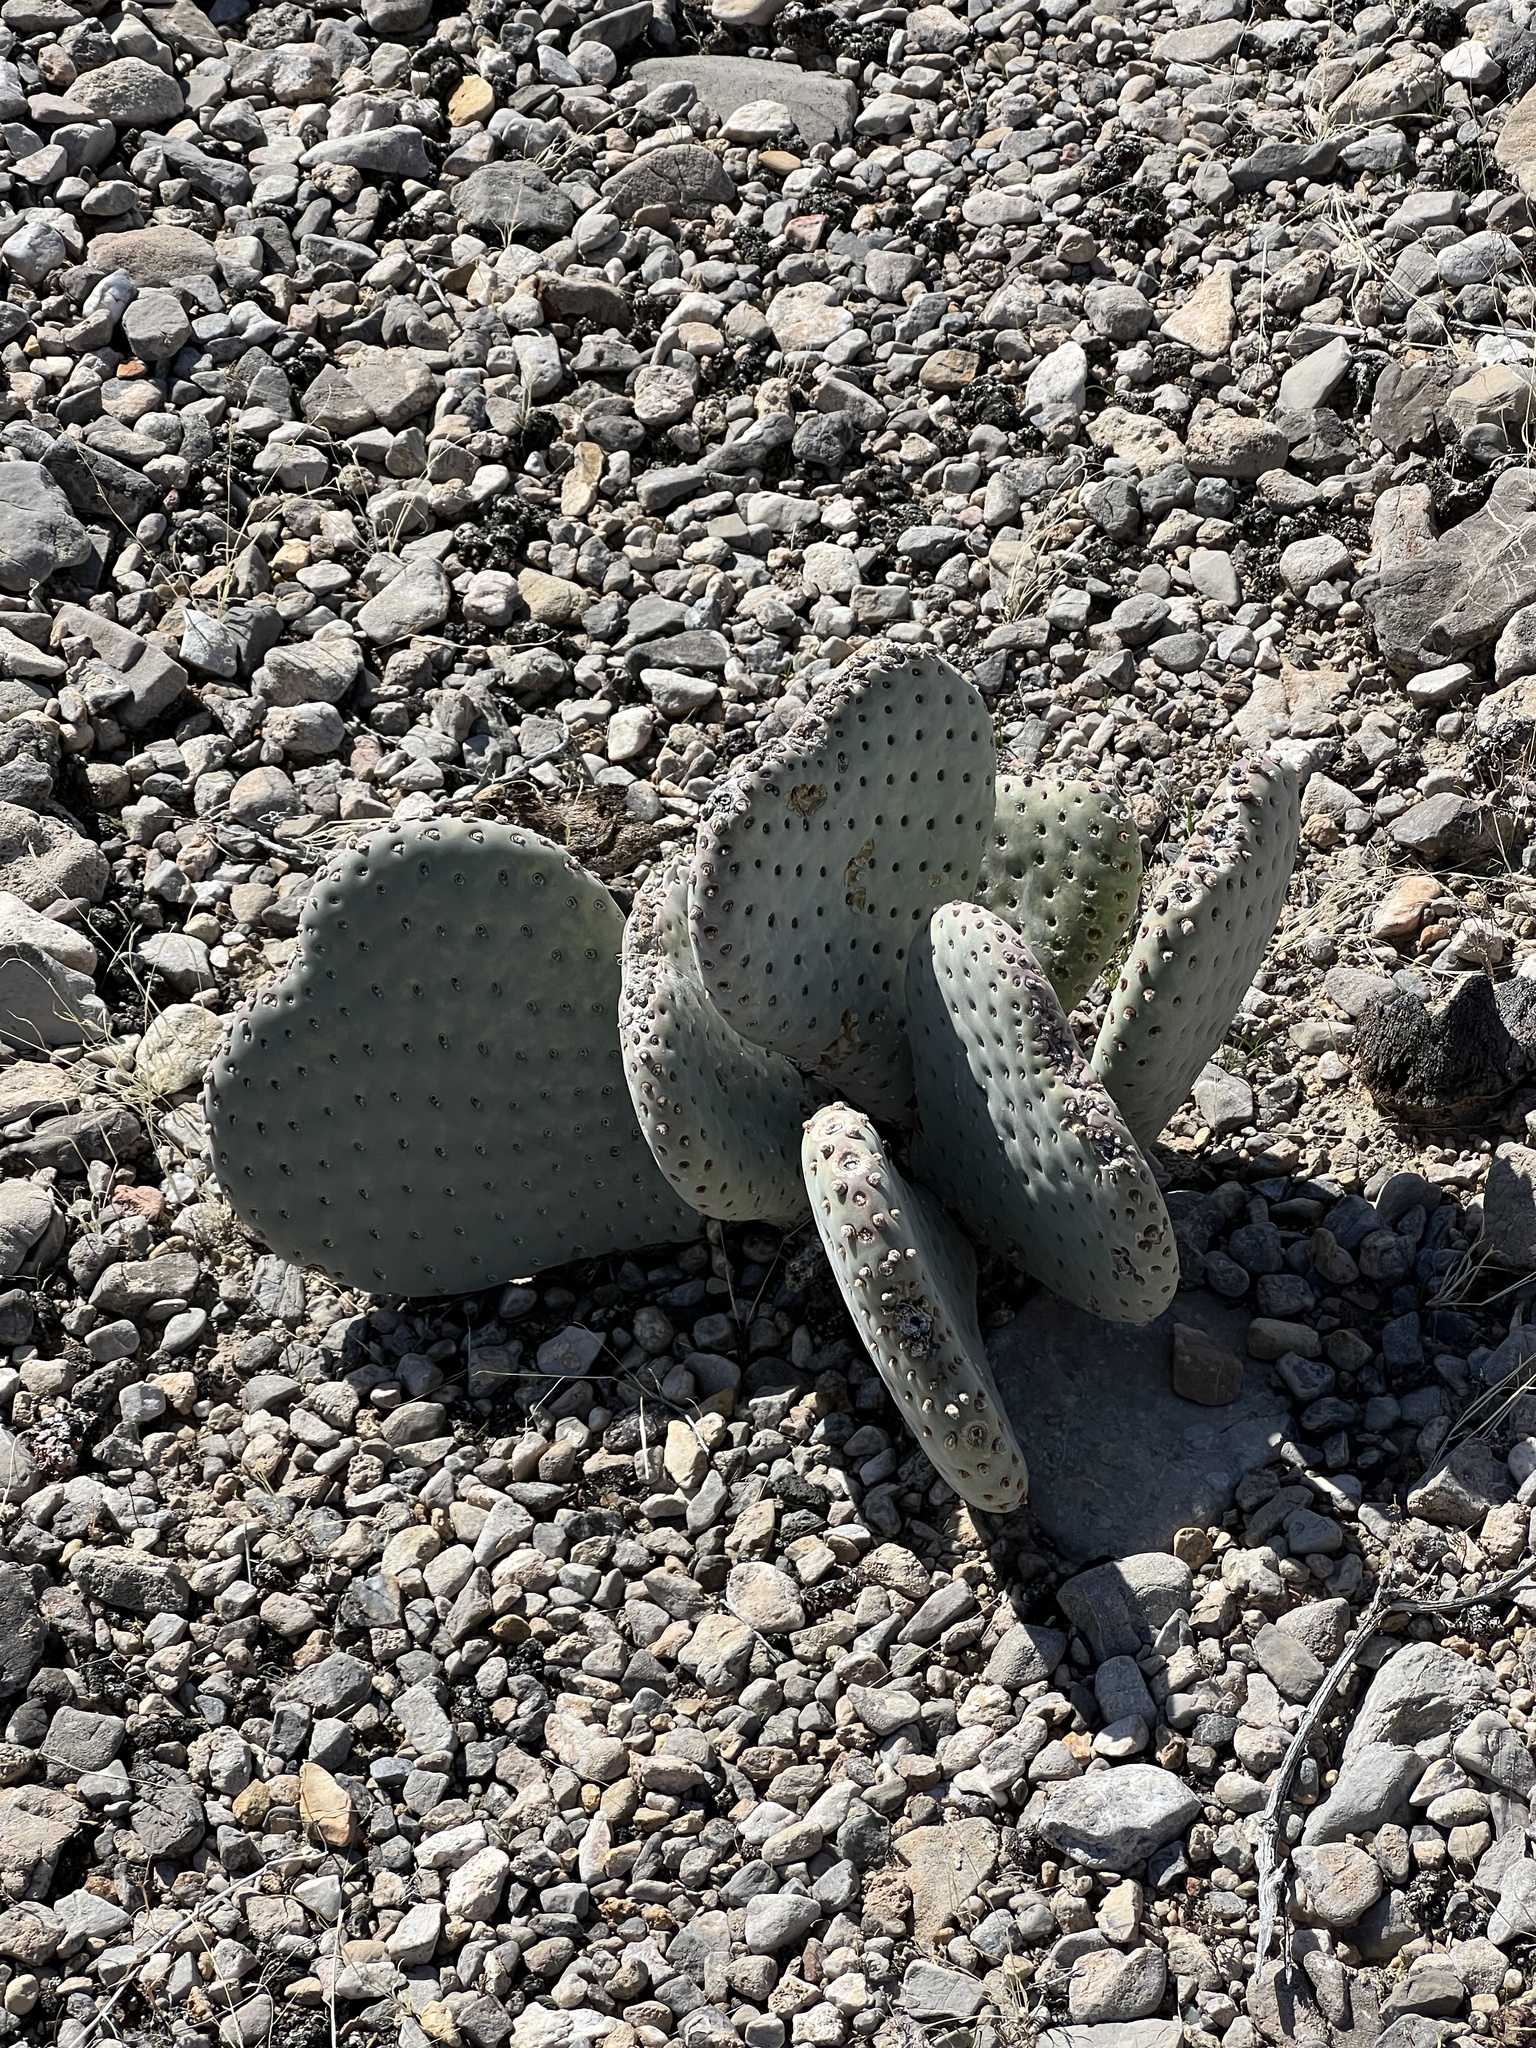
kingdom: Plantae
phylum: Tracheophyta
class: Magnoliopsida
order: Caryophyllales
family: Cactaceae
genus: Opuntia
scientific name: Opuntia basilaris
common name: Beavertail prickly-pear
